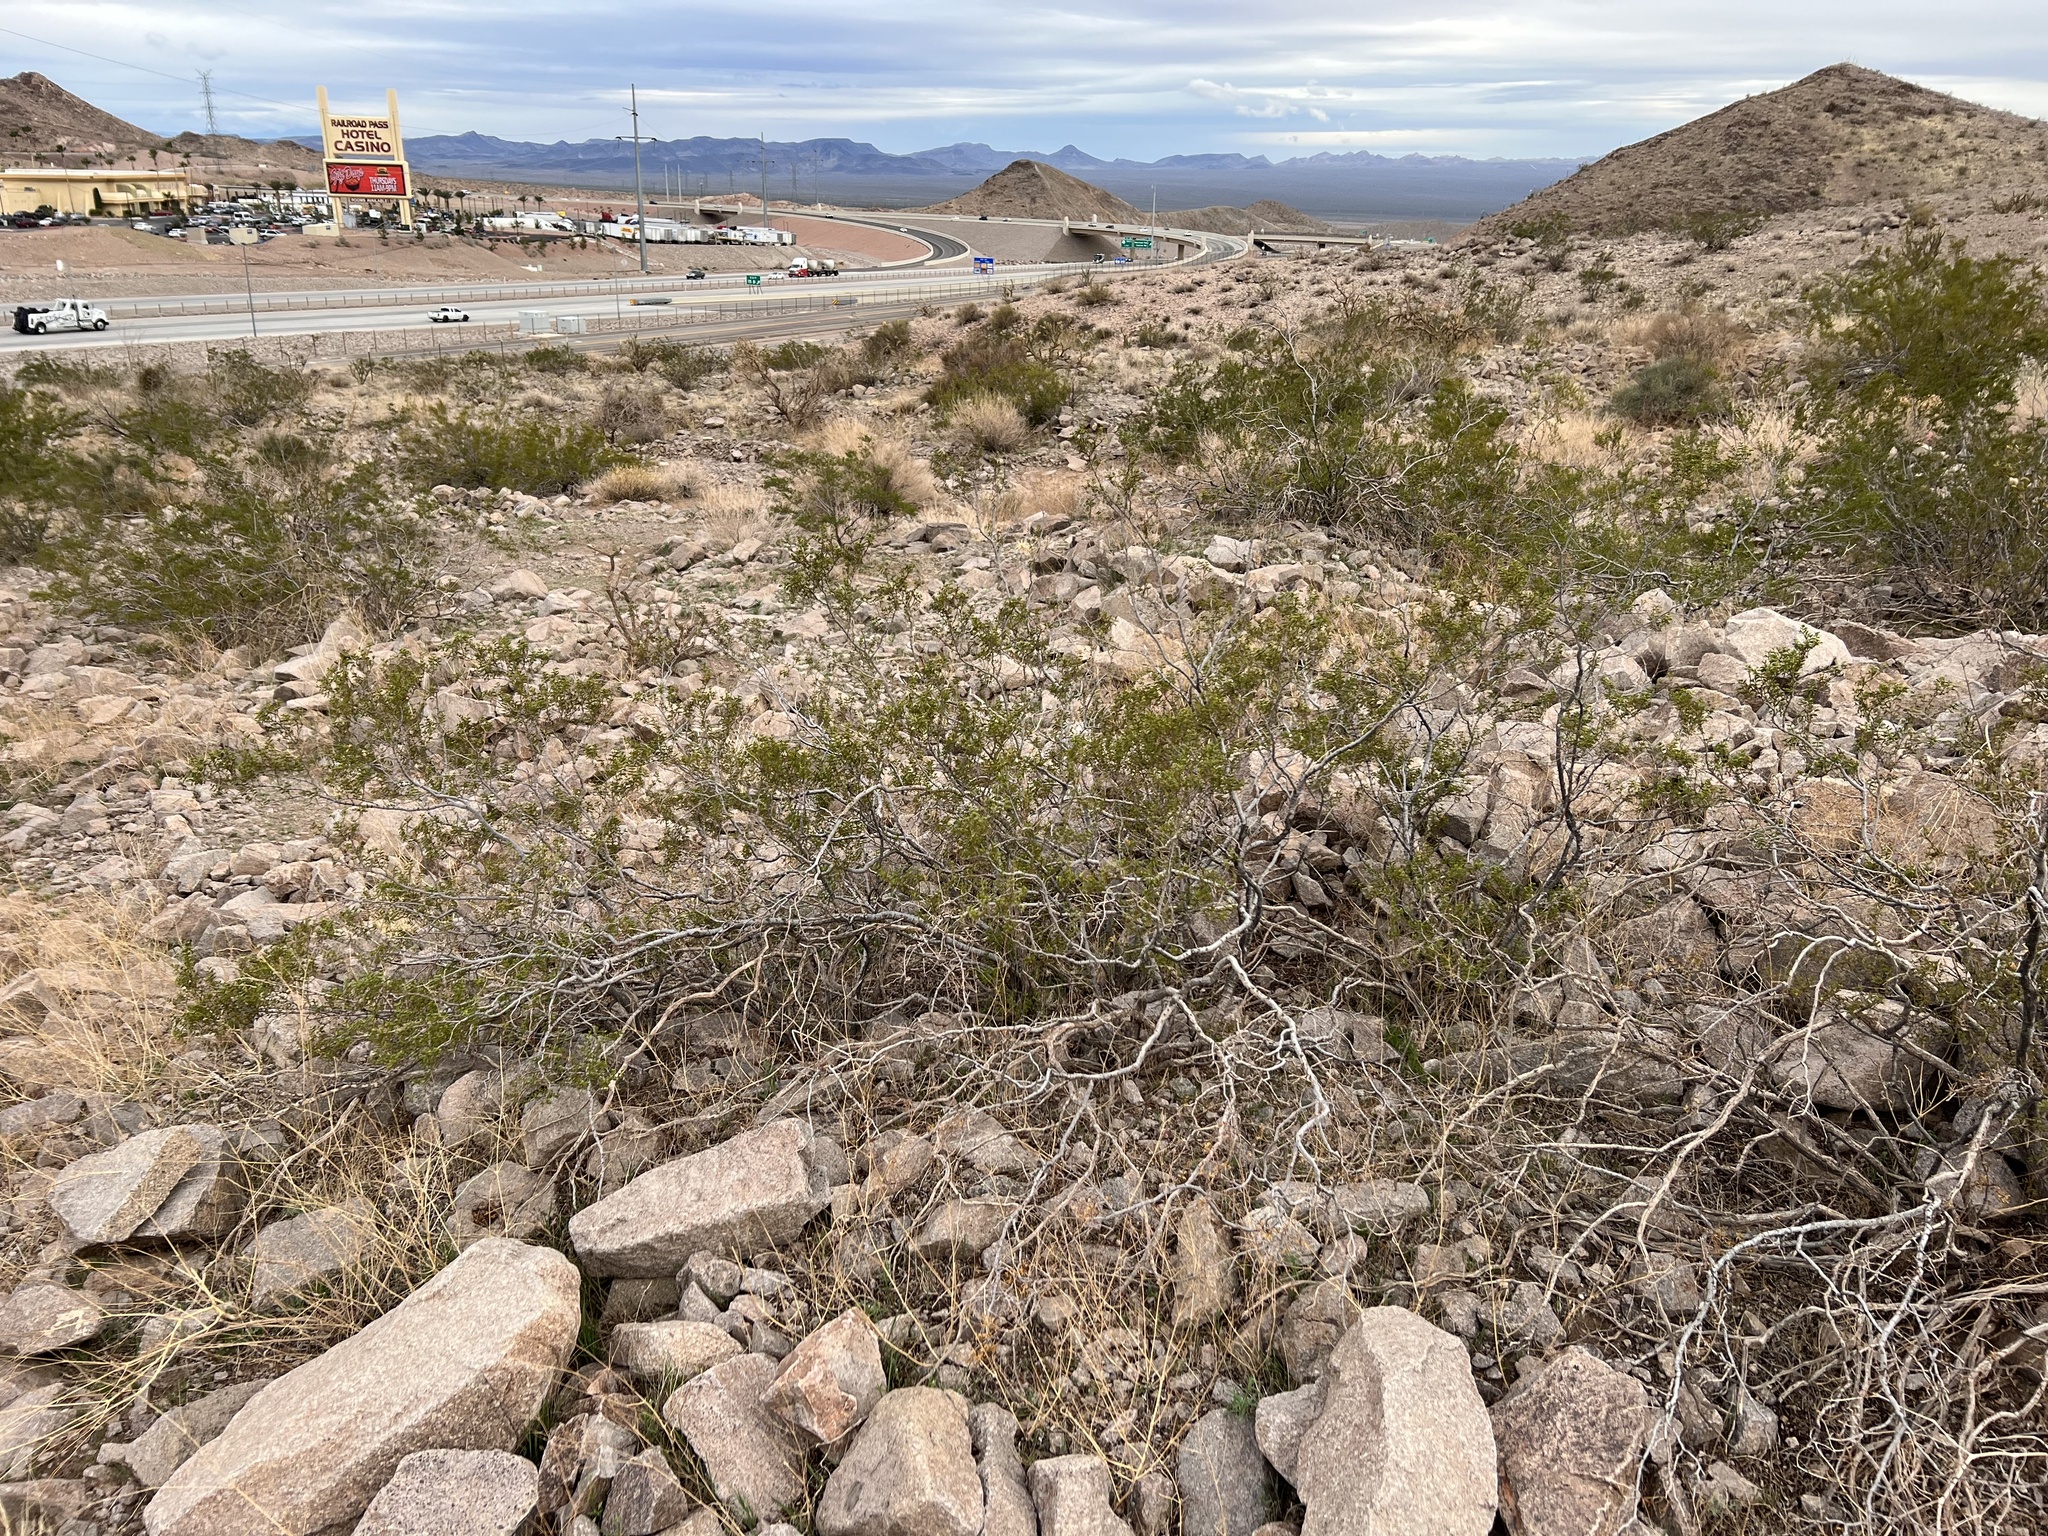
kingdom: Plantae
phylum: Tracheophyta
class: Magnoliopsida
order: Zygophyllales
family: Zygophyllaceae
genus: Larrea
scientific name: Larrea tridentata
